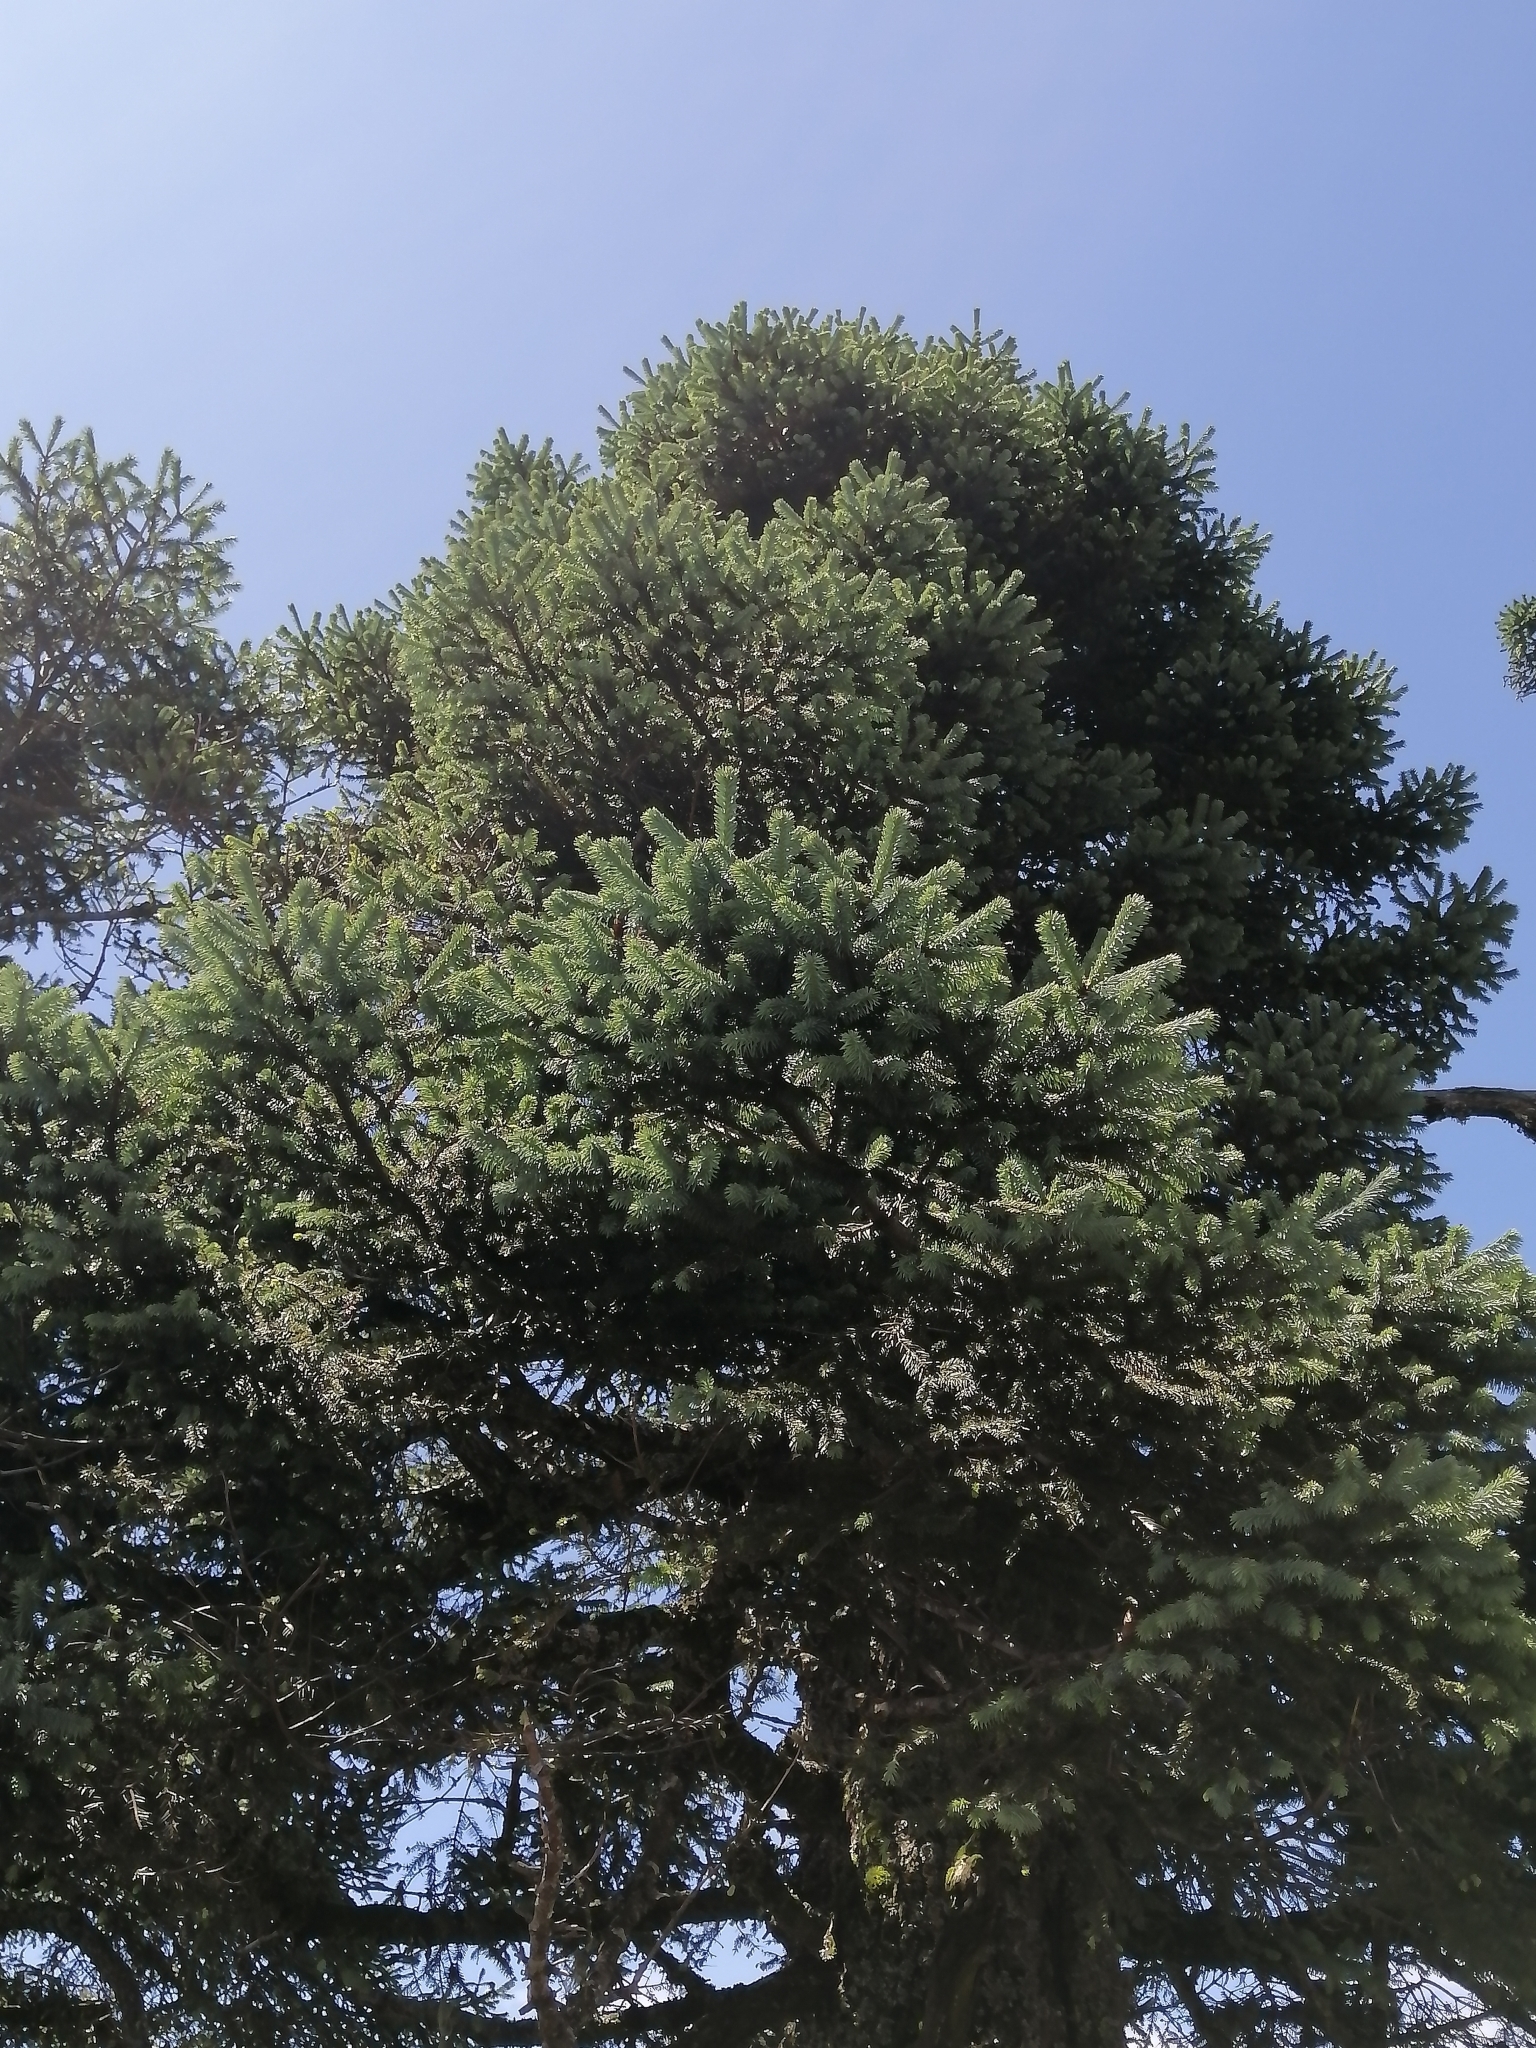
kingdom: Plantae
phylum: Tracheophyta
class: Pinopsida
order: Pinales
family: Pinaceae
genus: Abies
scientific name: Abies religiosa
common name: Sacred fir
